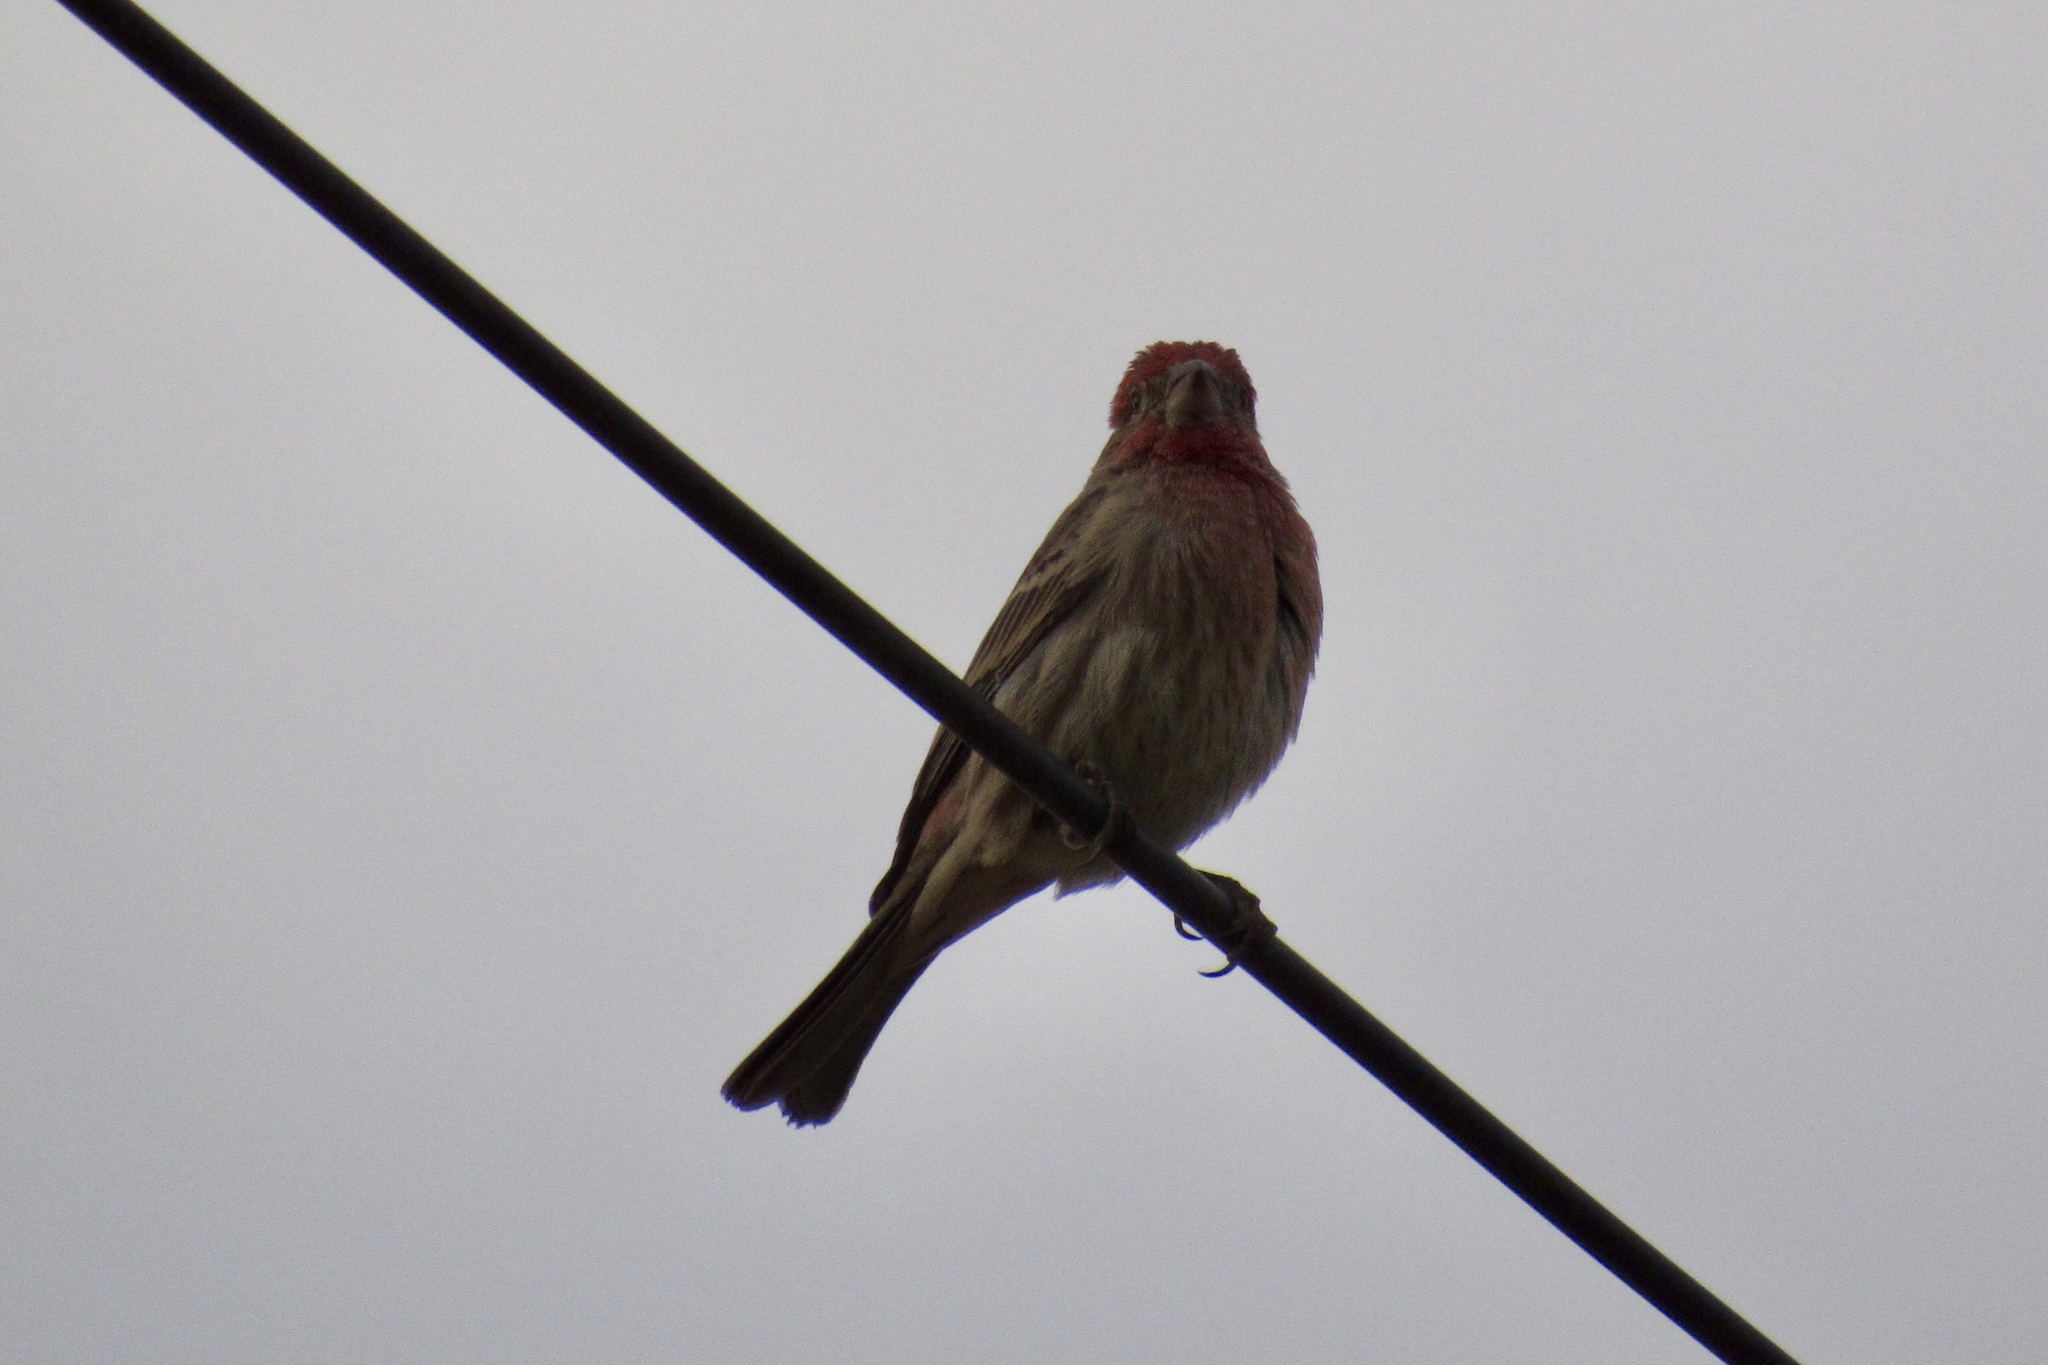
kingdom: Animalia
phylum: Chordata
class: Aves
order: Passeriformes
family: Fringillidae
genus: Haemorhous
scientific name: Haemorhous mexicanus
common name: House finch
